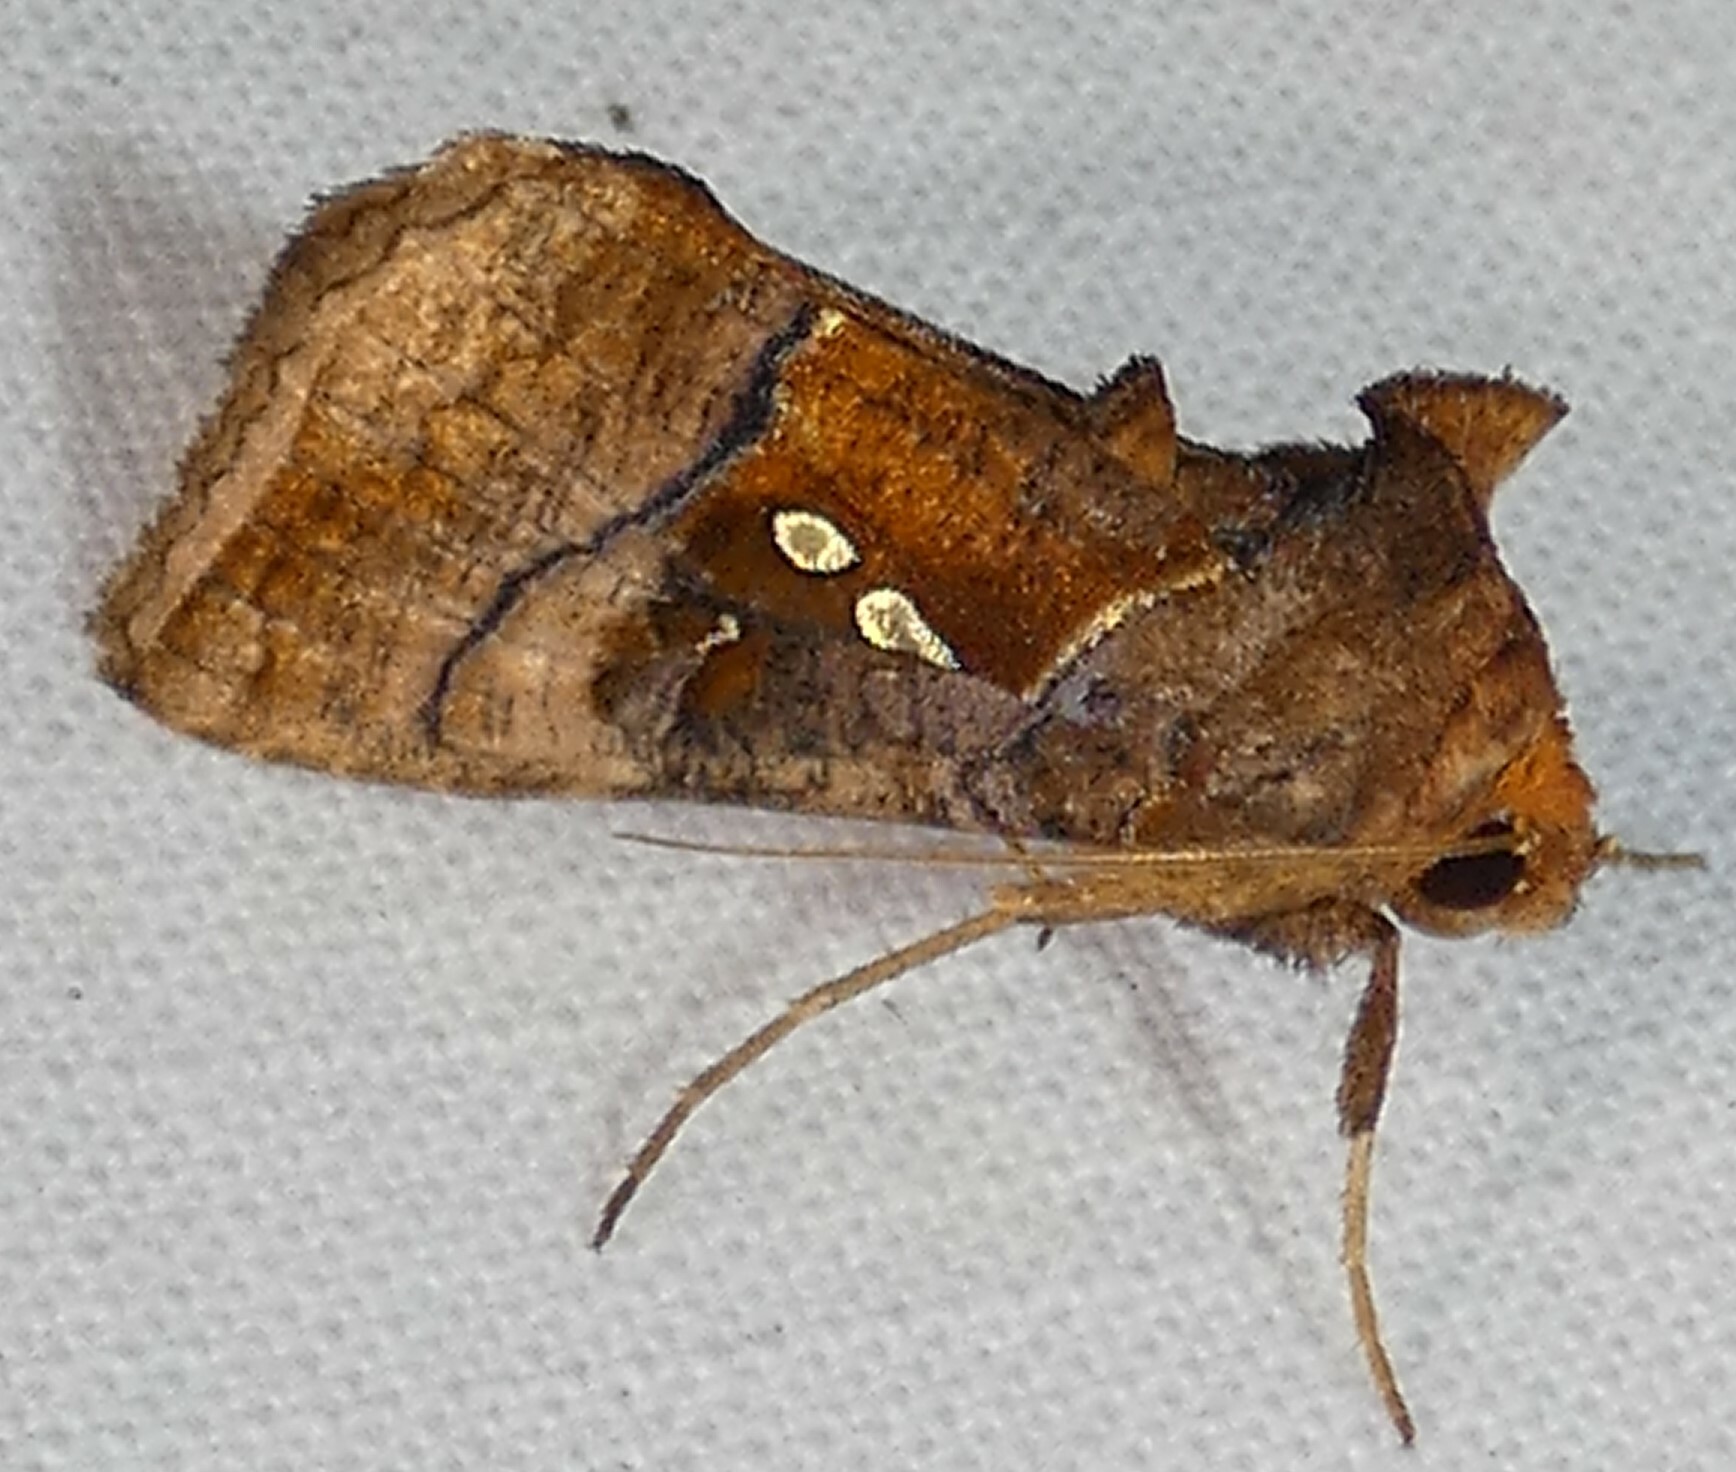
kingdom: Animalia
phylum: Arthropoda
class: Insecta
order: Lepidoptera
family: Noctuidae
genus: Enigmogramma
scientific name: Enigmogramma basigera
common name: Pink-washed looper moth
